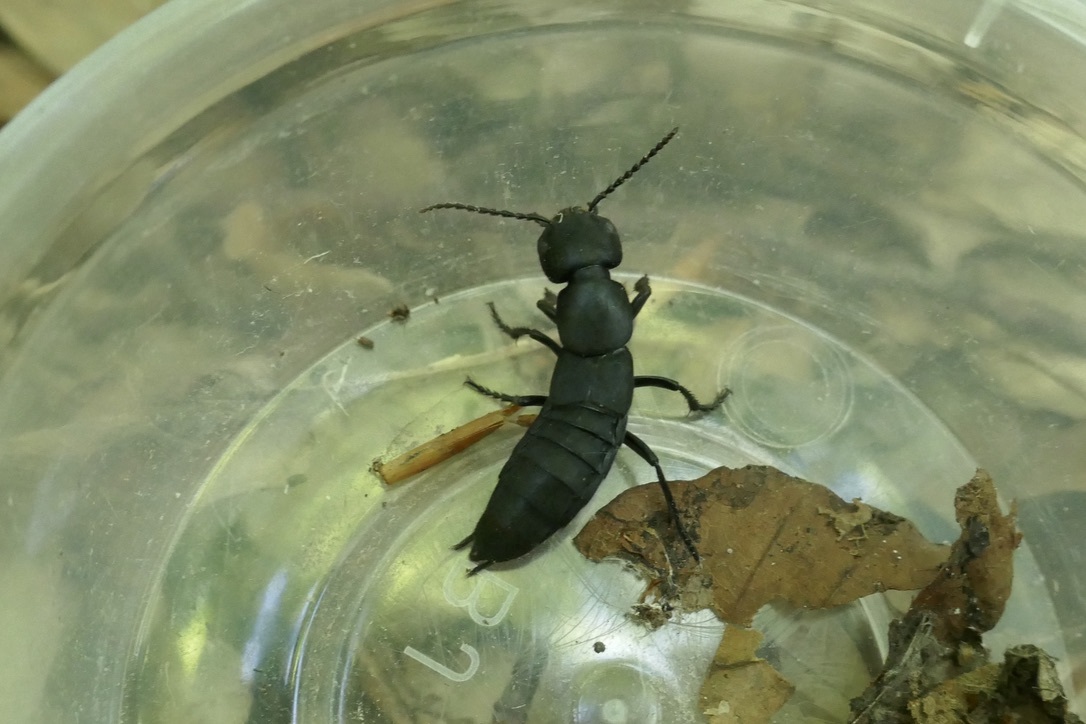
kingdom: Animalia
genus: Matidus
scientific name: Matidus
